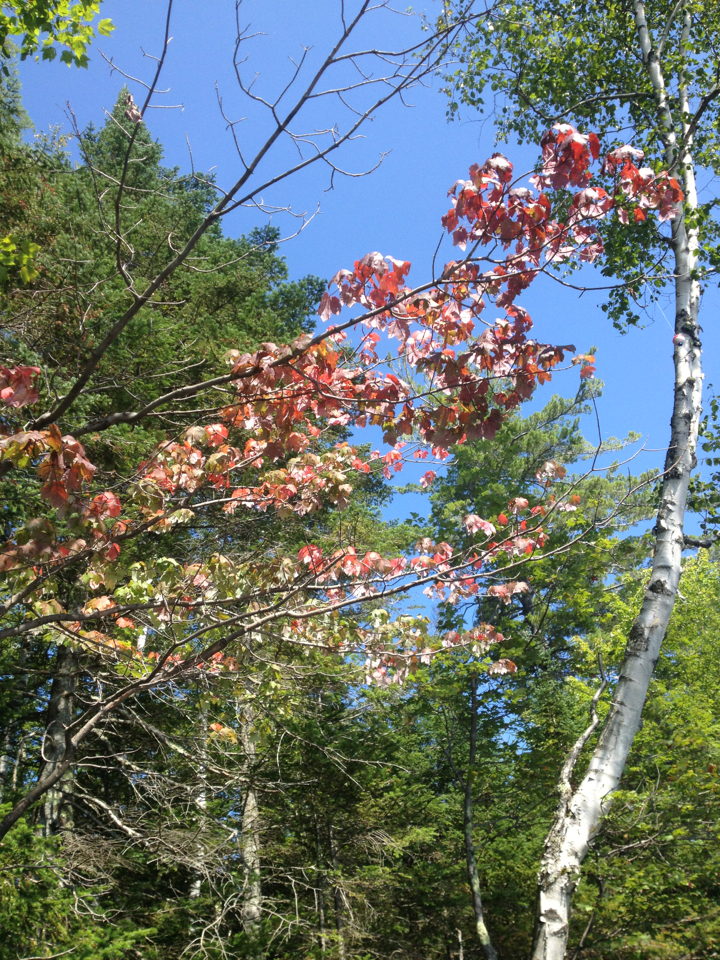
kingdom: Plantae
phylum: Tracheophyta
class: Magnoliopsida
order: Sapindales
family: Sapindaceae
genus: Acer
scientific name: Acer rubrum
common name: Red maple
